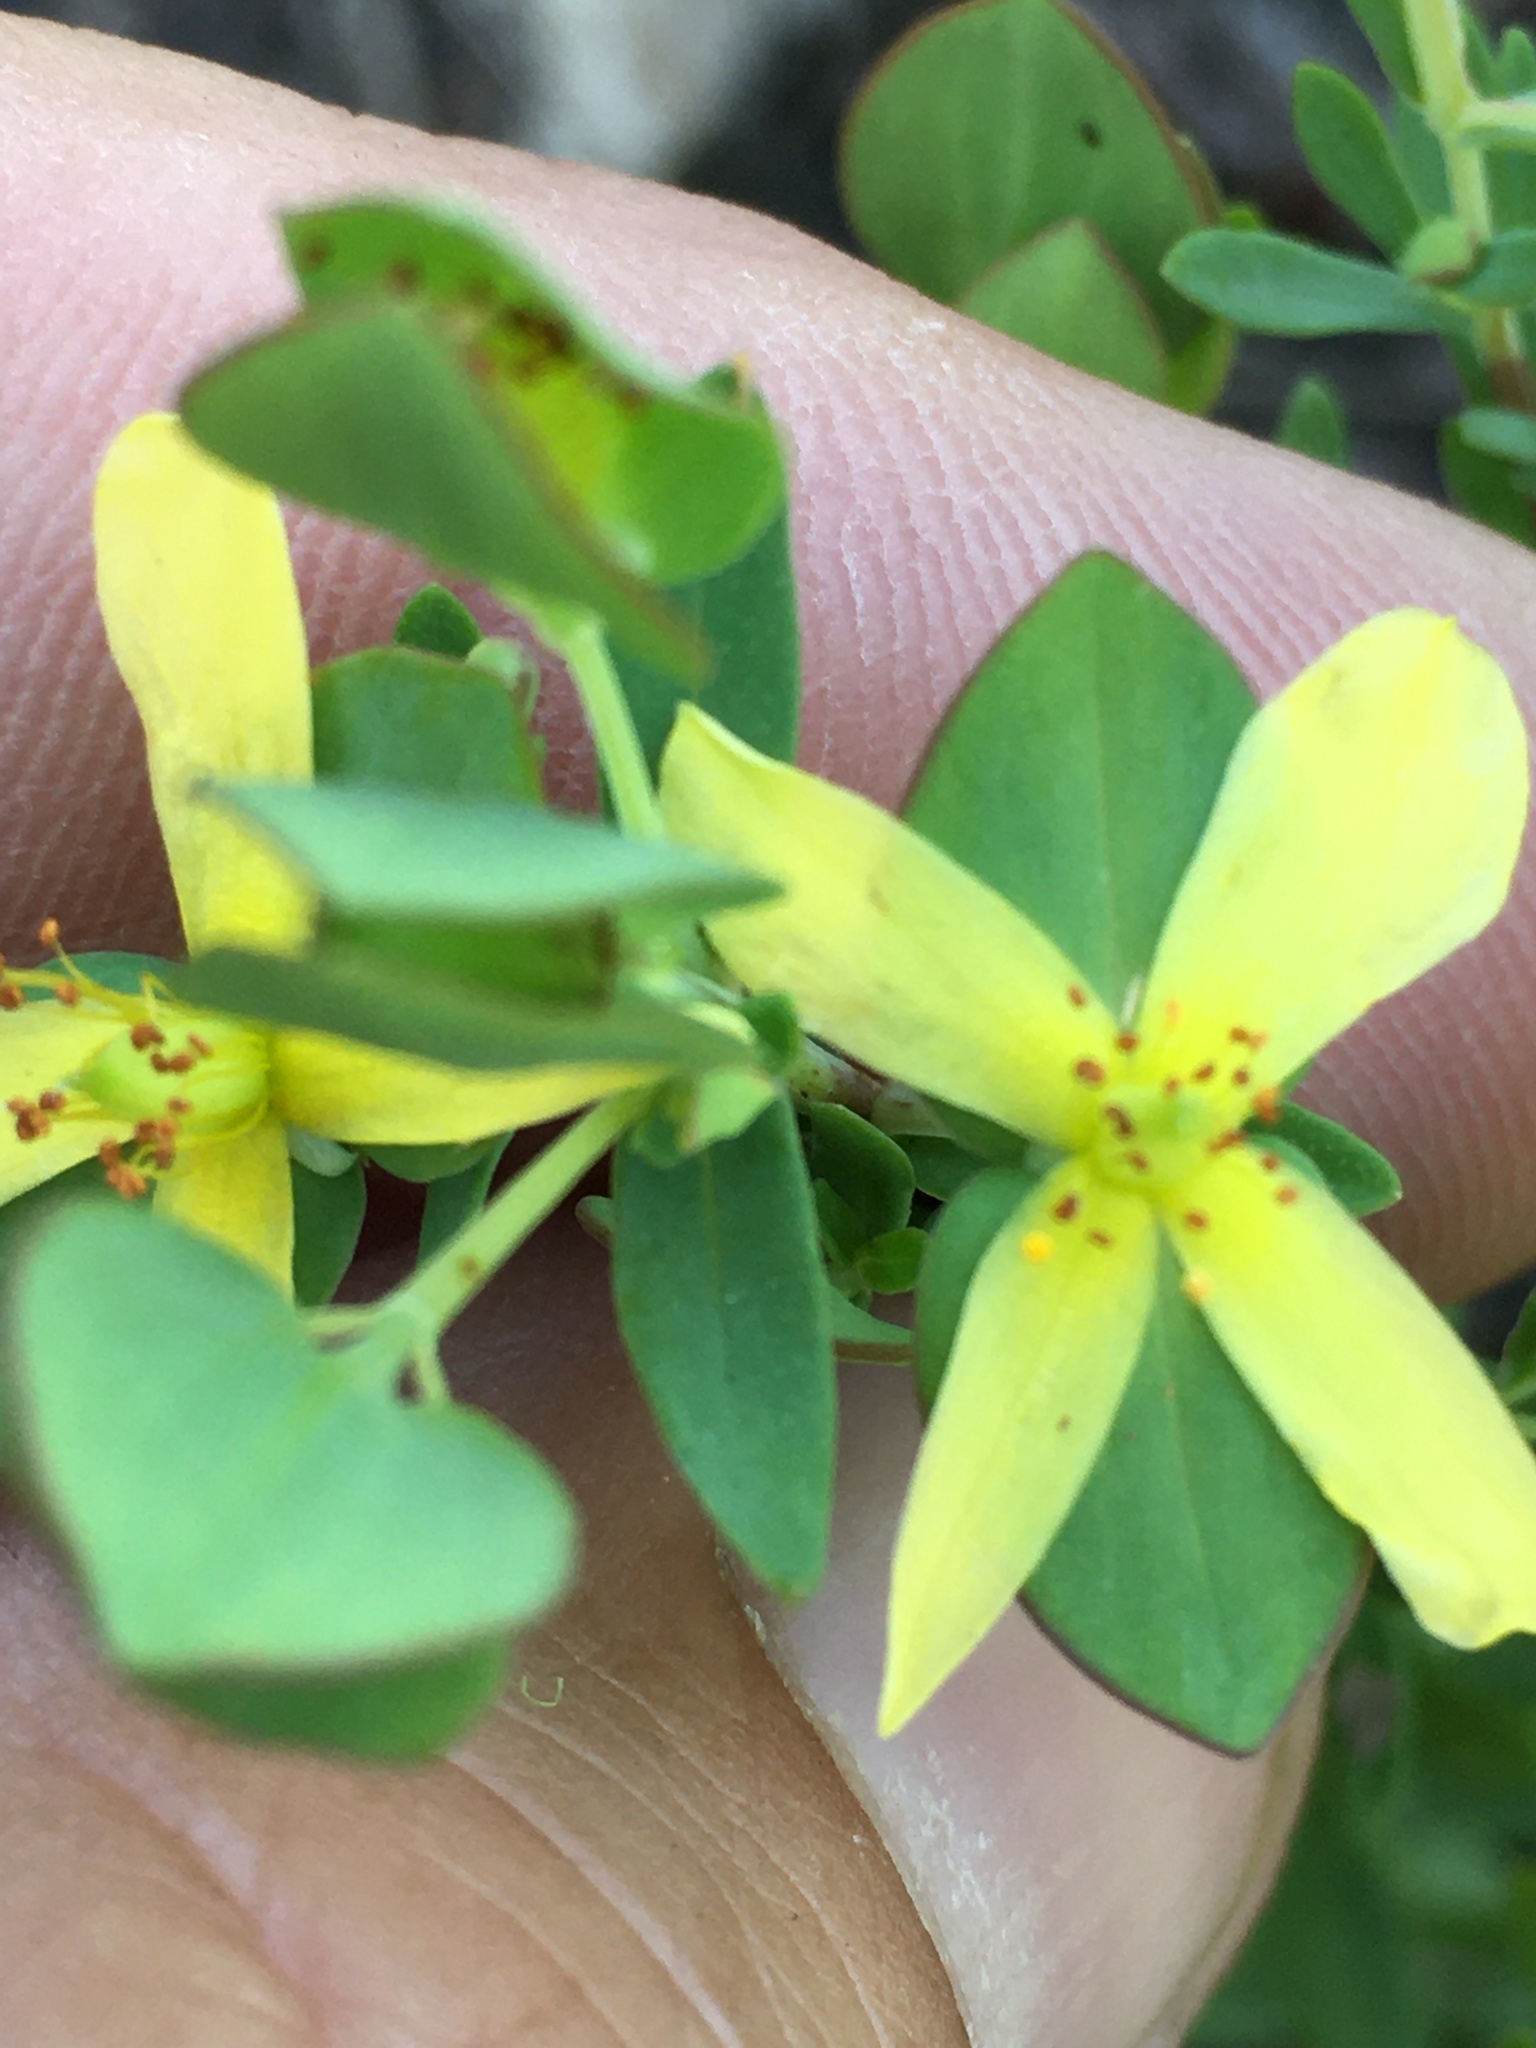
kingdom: Plantae
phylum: Tracheophyta
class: Magnoliopsida
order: Malpighiales
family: Hypericaceae
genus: Hypericum
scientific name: Hypericum hypericoides
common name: St. andrew's cross
